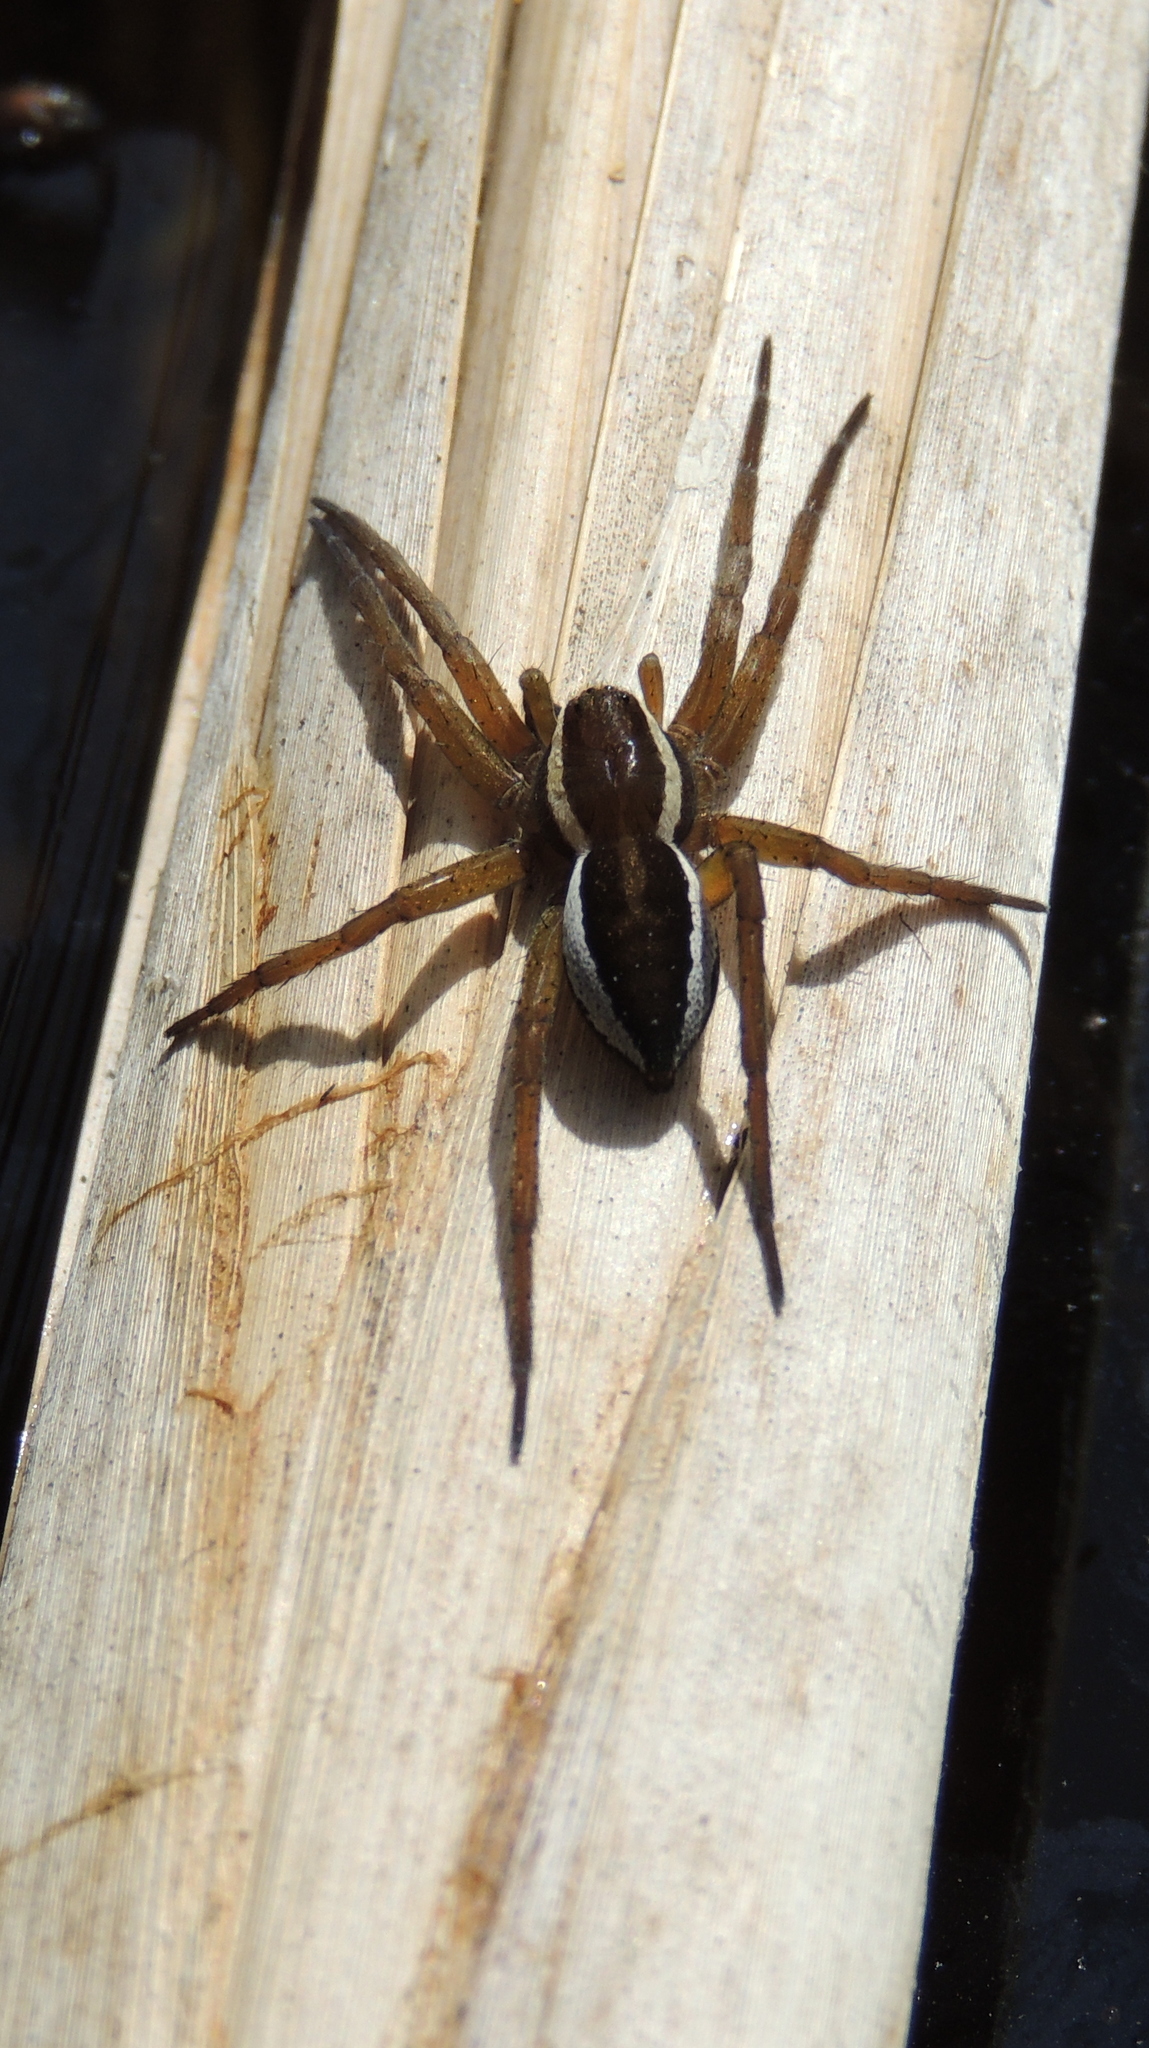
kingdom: Animalia
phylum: Arthropoda
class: Arachnida
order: Araneae
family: Pisauridae
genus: Dolomedes
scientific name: Dolomedes fimbriatus
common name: Raft spider
